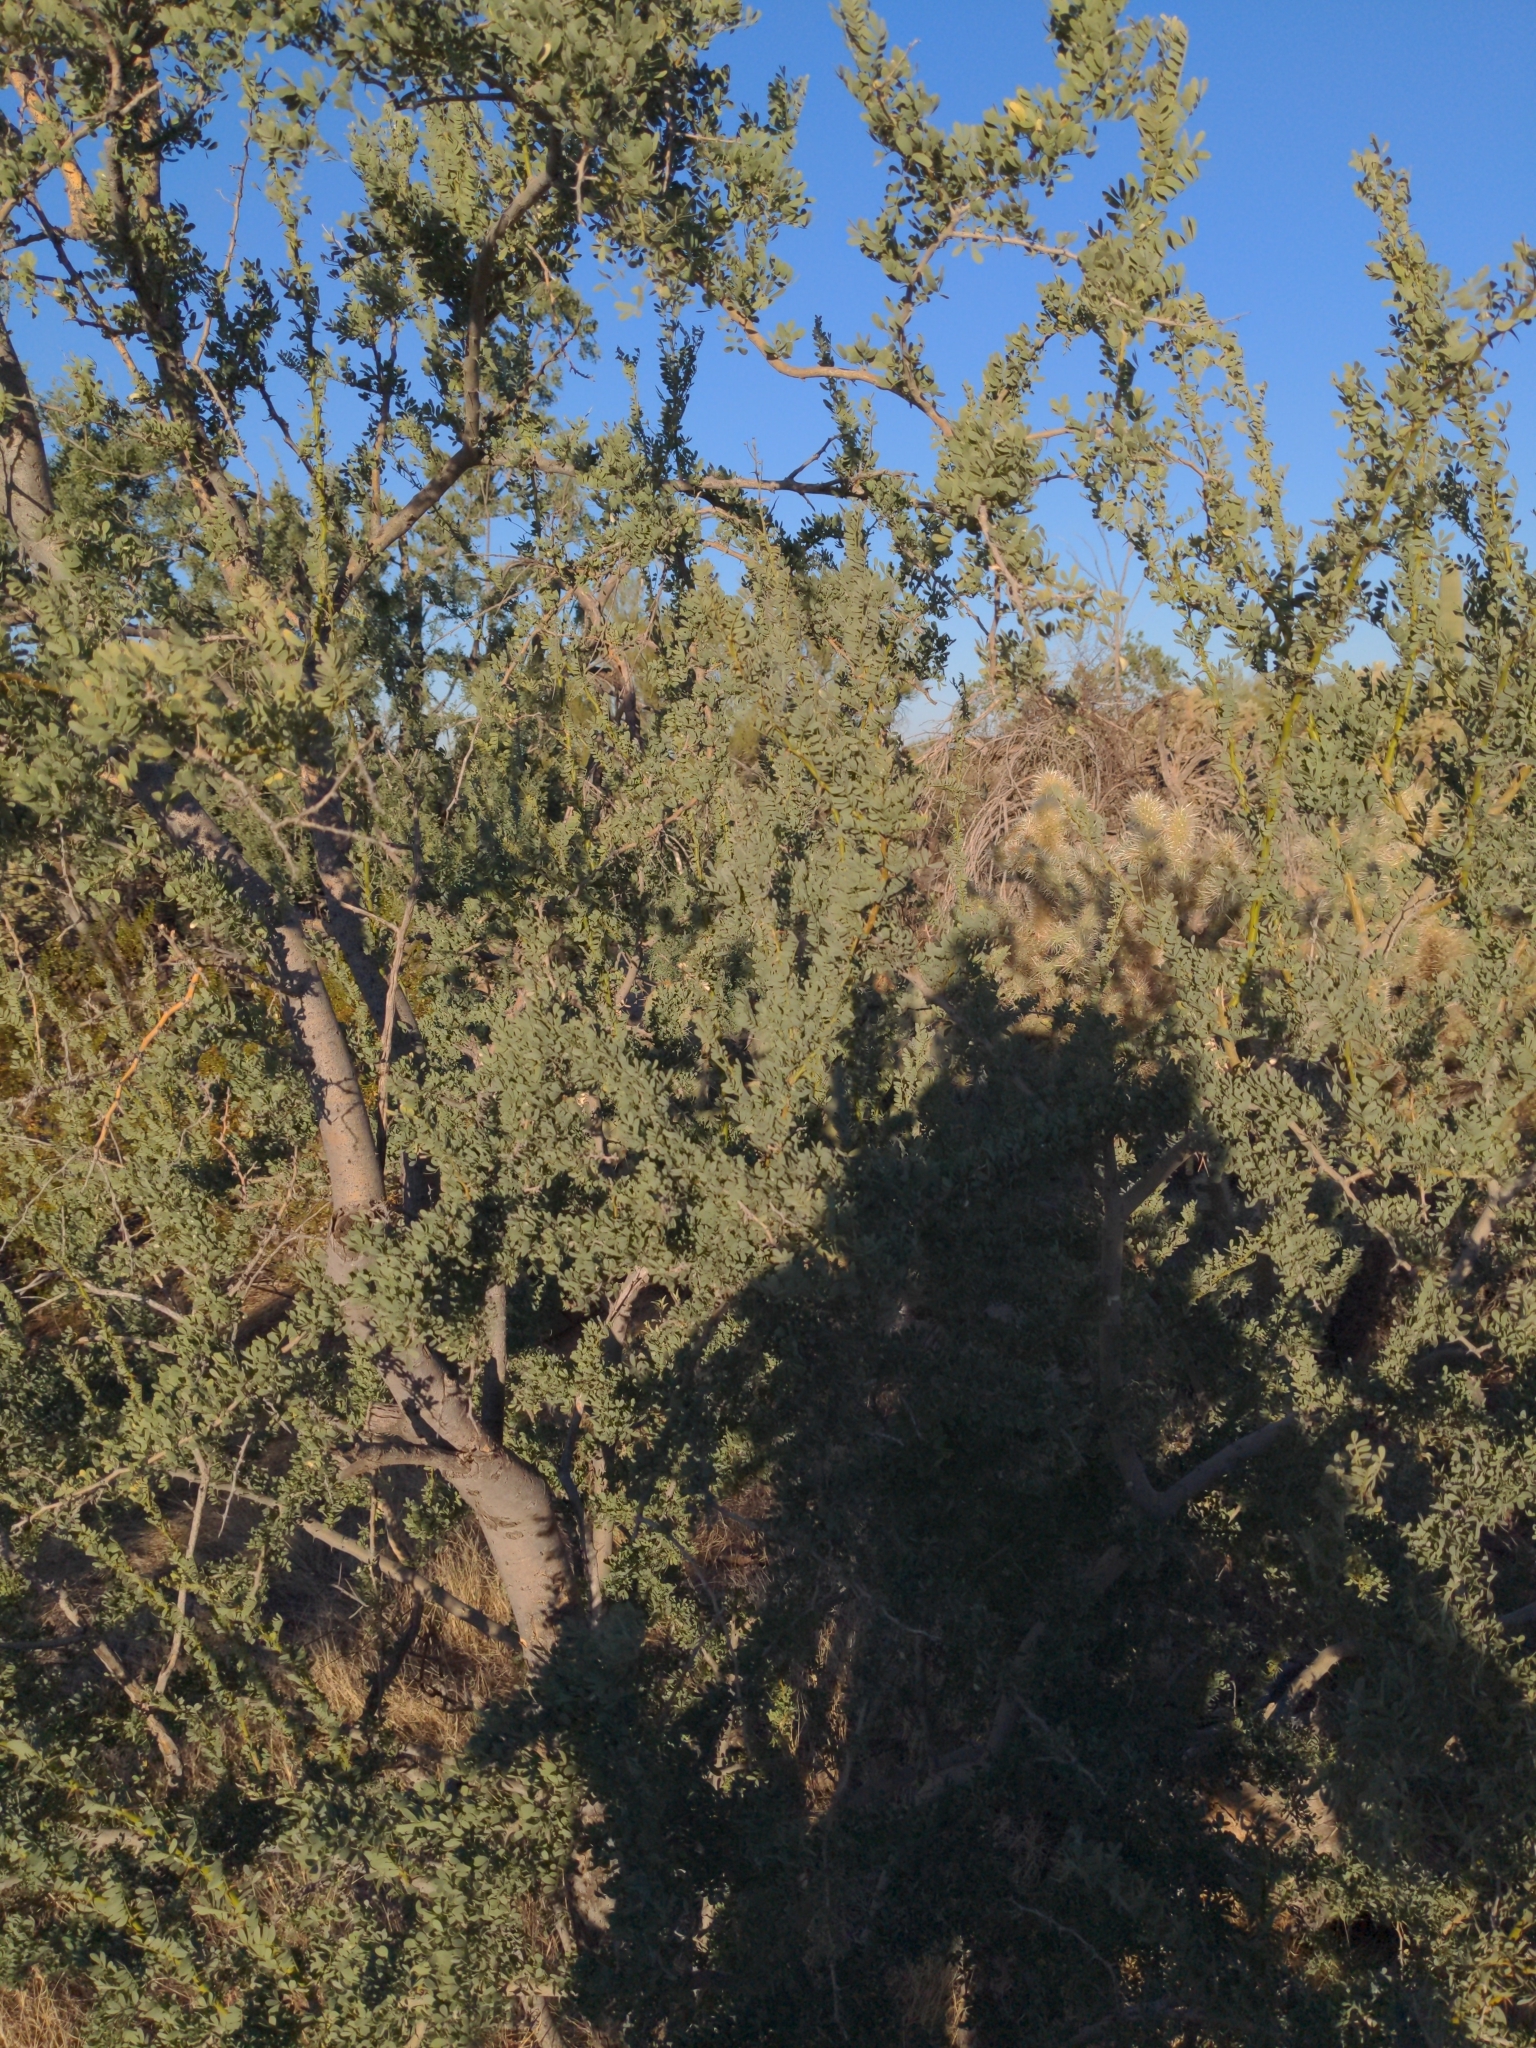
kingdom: Plantae
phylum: Tracheophyta
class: Magnoliopsida
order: Fabales
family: Fabaceae
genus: Olneya
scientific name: Olneya tesota
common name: Desert ironwood
